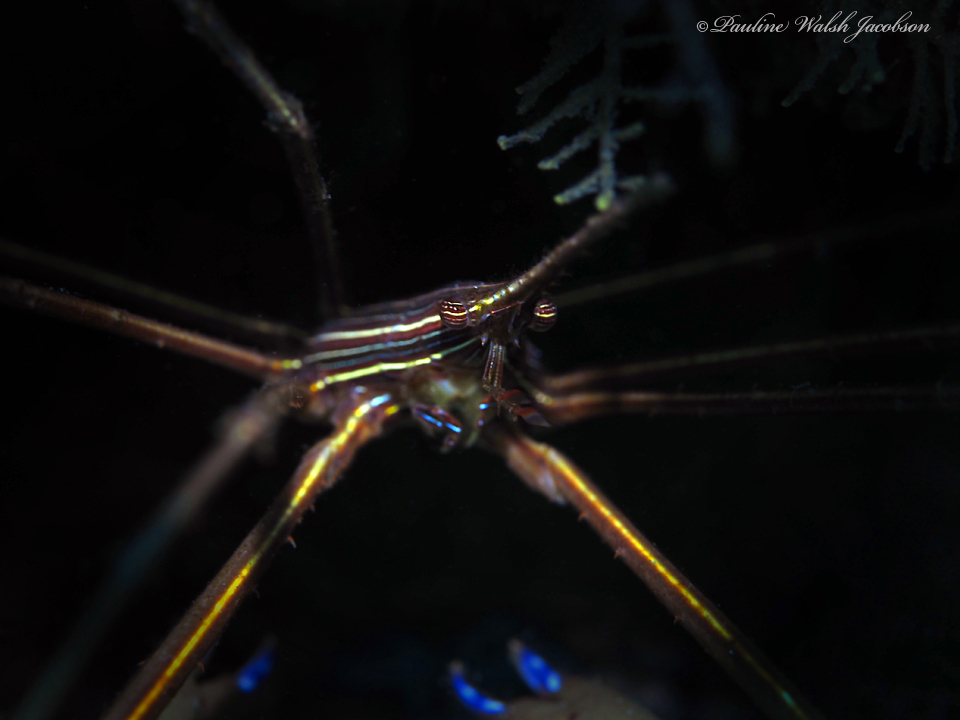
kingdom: Animalia
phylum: Arthropoda
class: Malacostraca
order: Decapoda
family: Inachoididae
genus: Stenorhynchus
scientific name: Stenorhynchus seticornis
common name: Arrow crab
